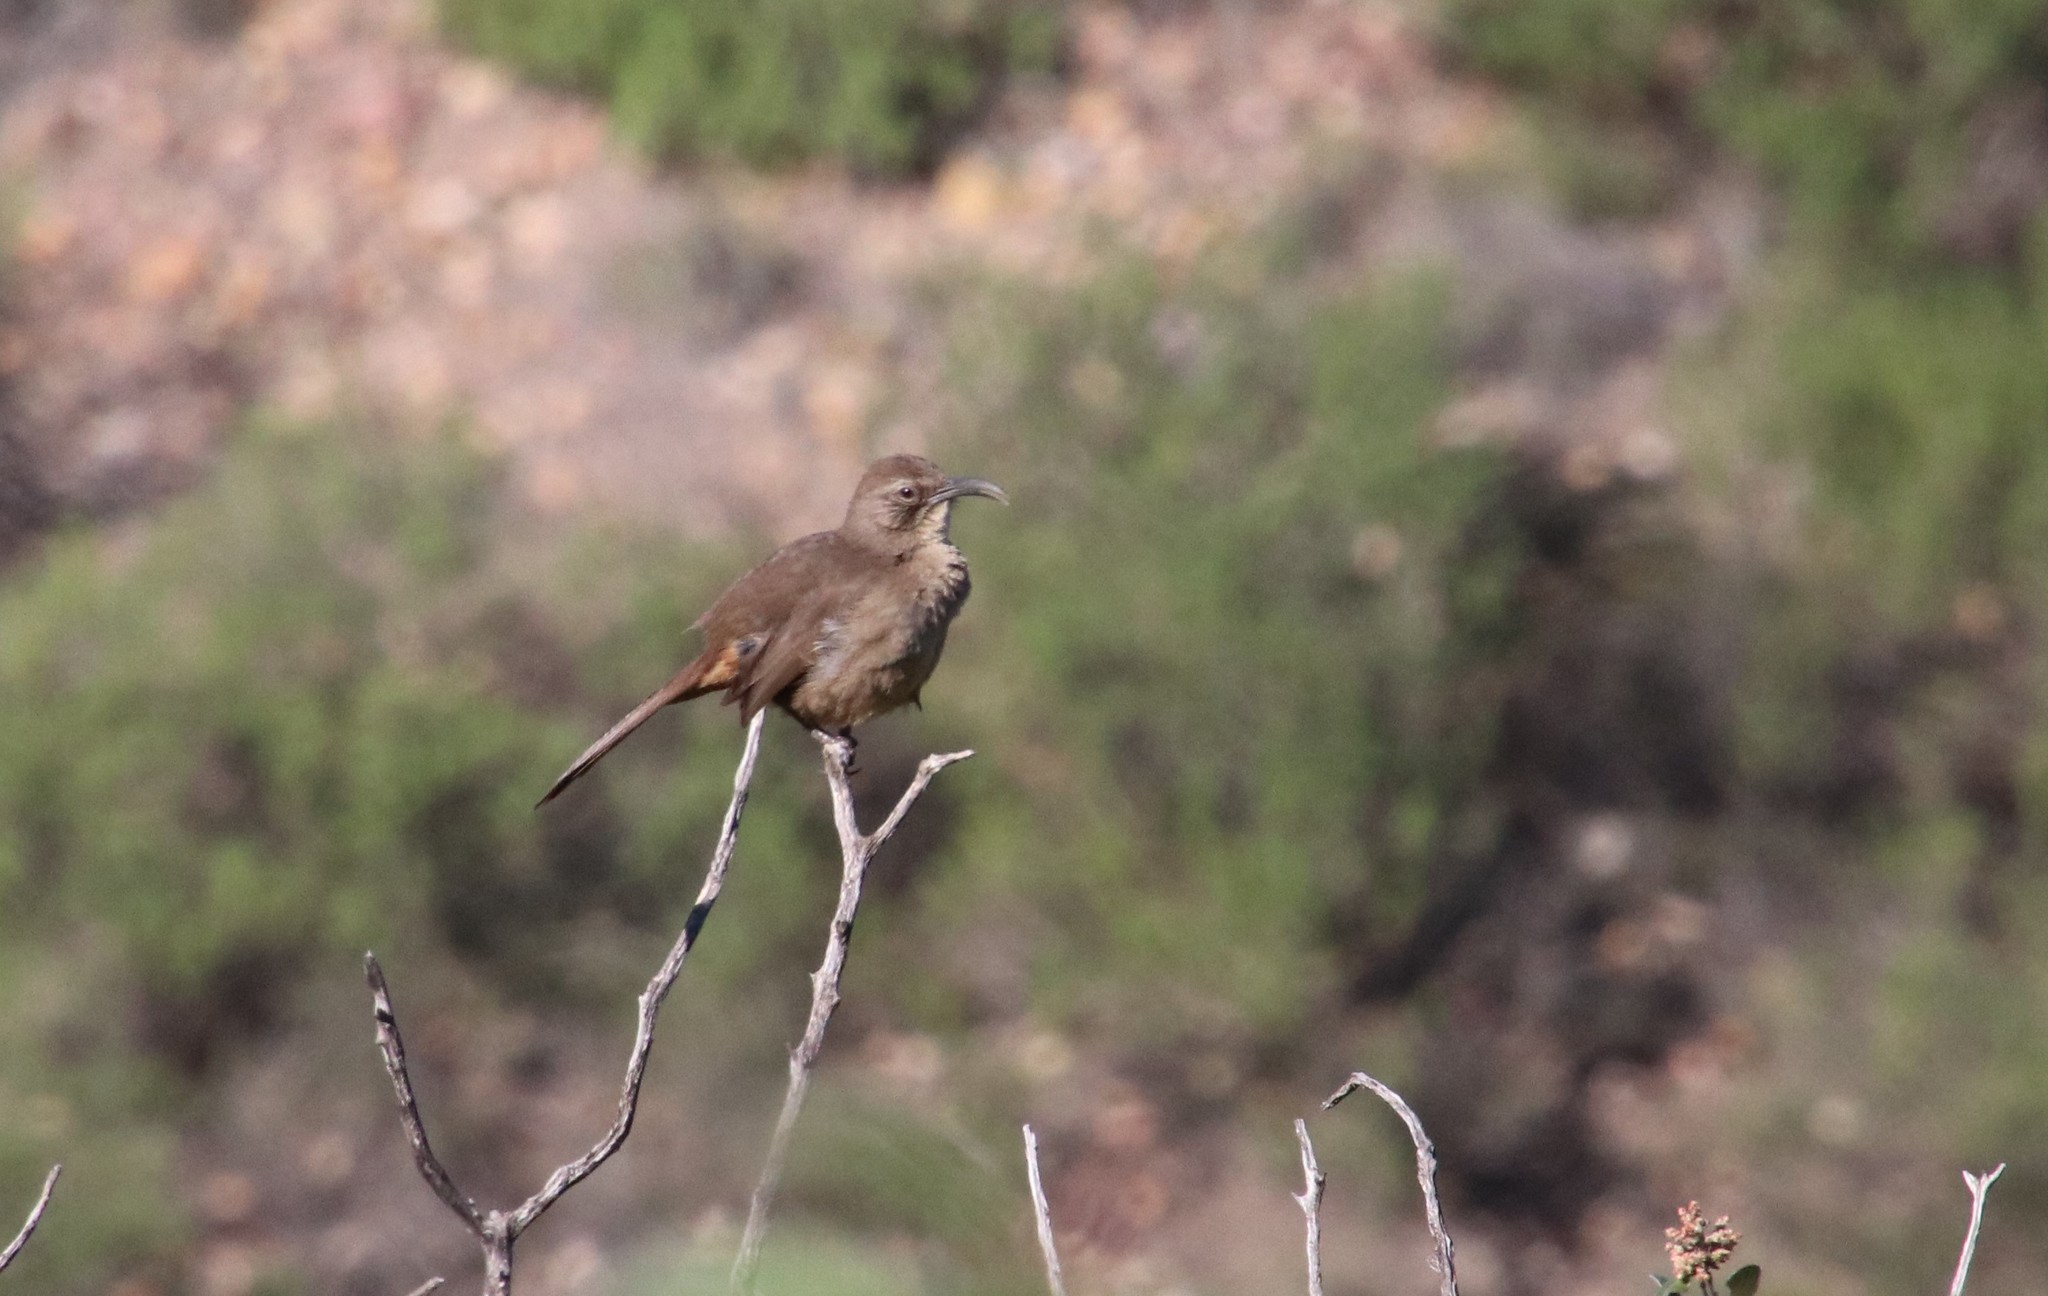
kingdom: Animalia
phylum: Chordata
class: Aves
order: Passeriformes
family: Mimidae
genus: Toxostoma
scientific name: Toxostoma redivivum
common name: California thrasher
